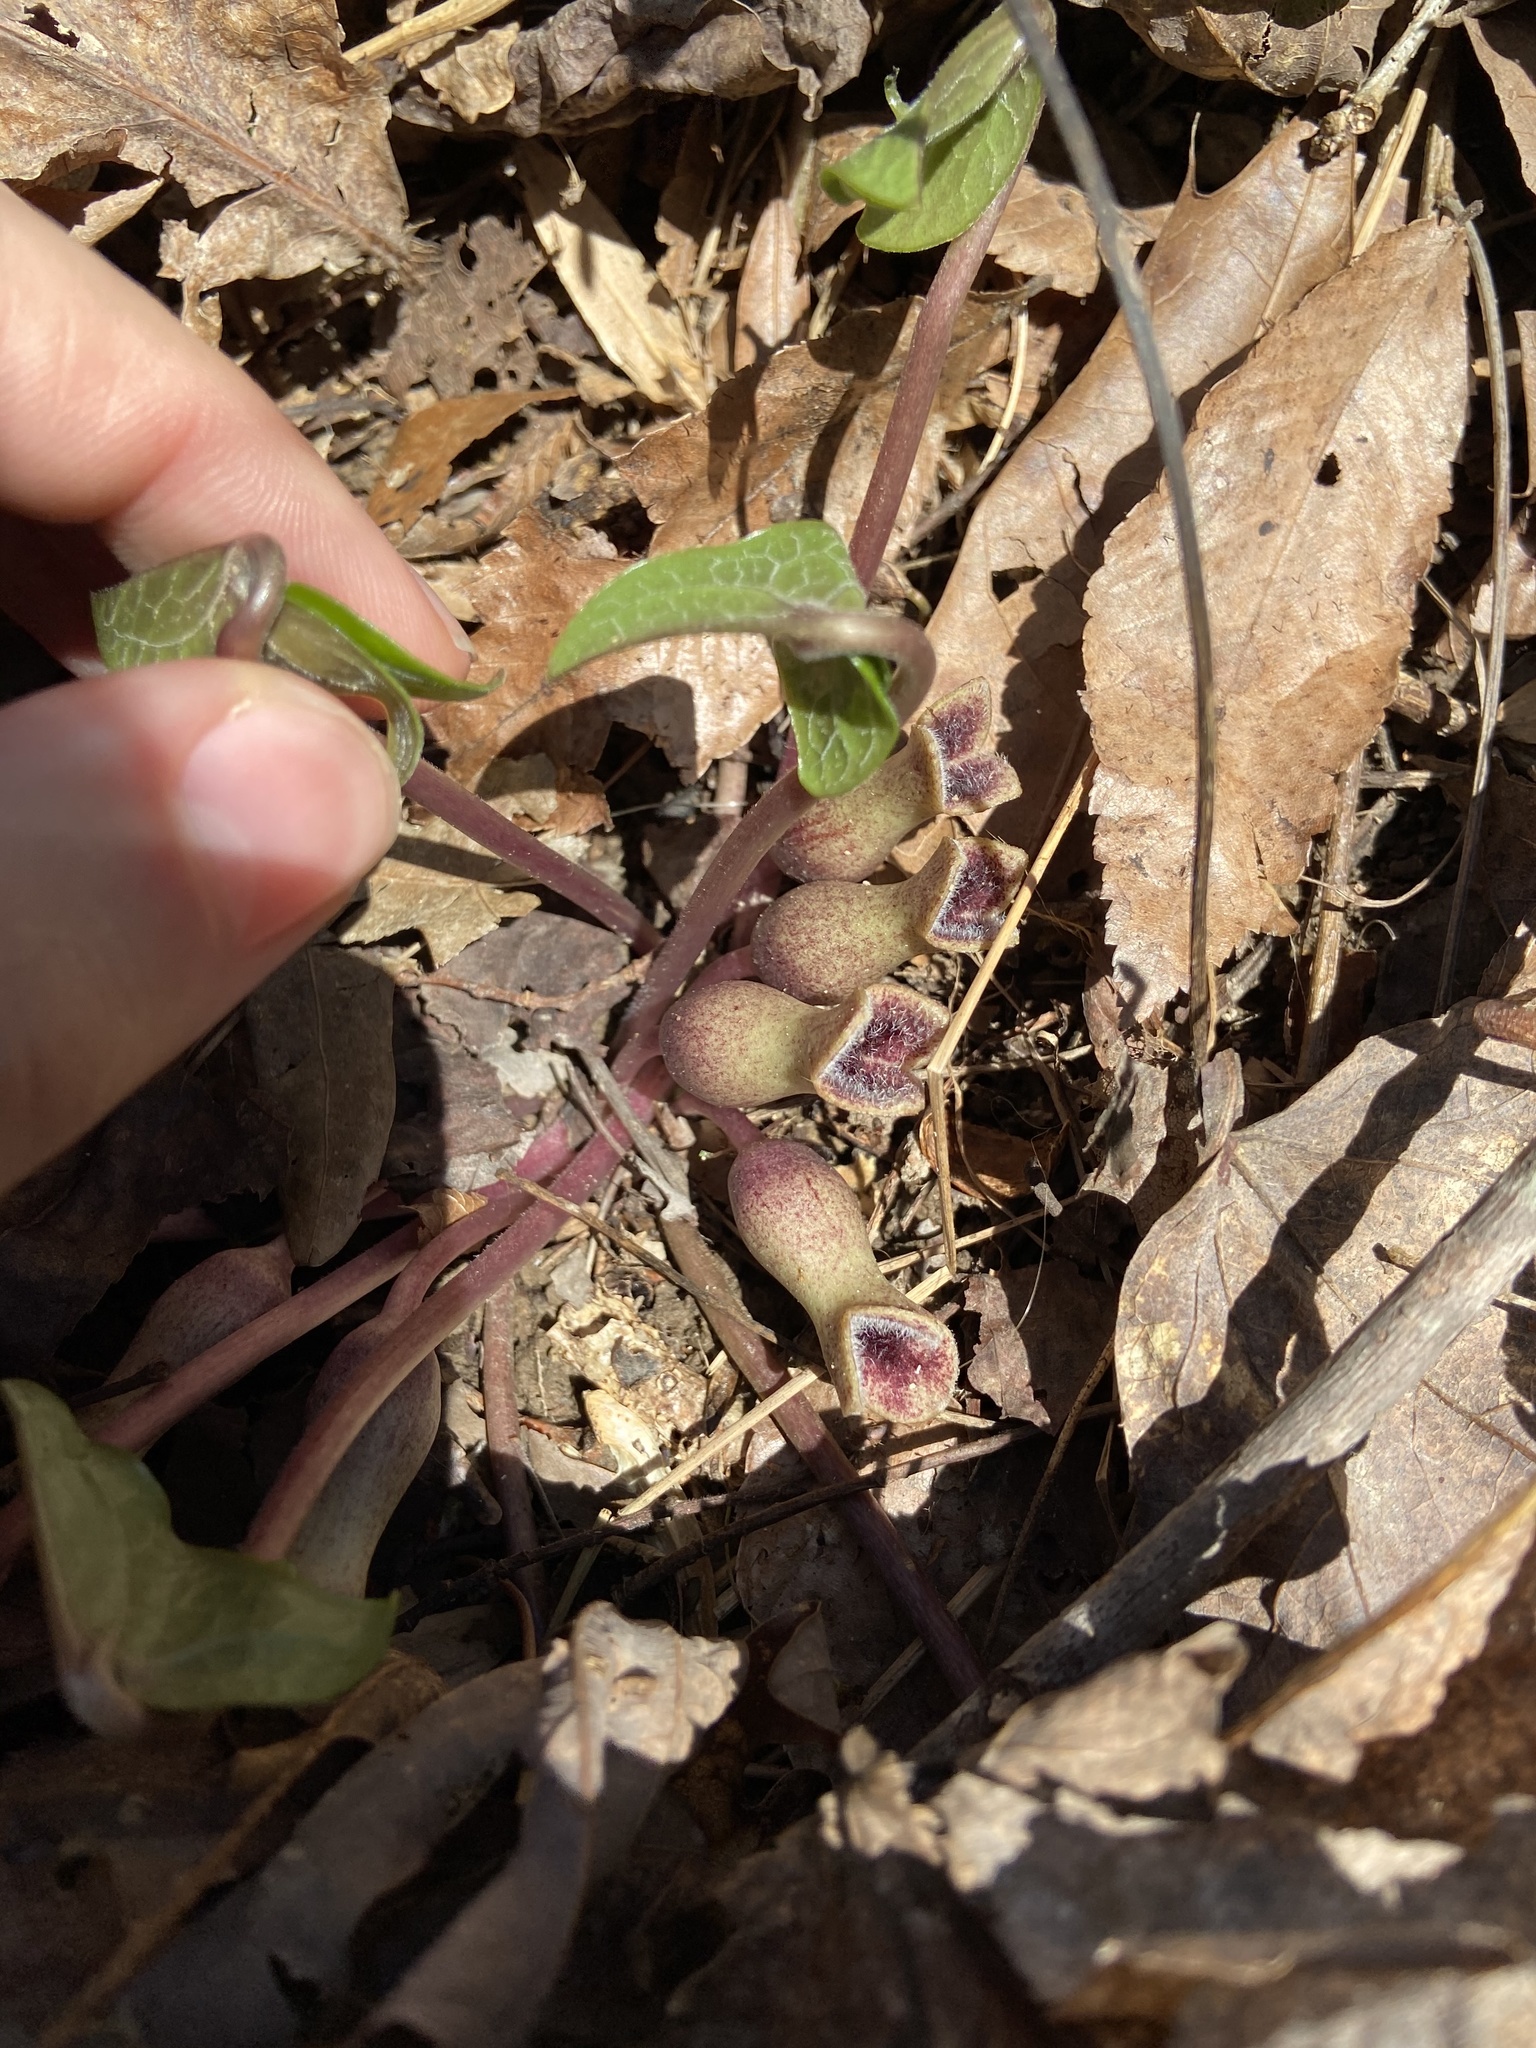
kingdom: Plantae
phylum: Tracheophyta
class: Magnoliopsida
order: Piperales
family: Aristolochiaceae
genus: Hexastylis
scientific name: Hexastylis arifolia
